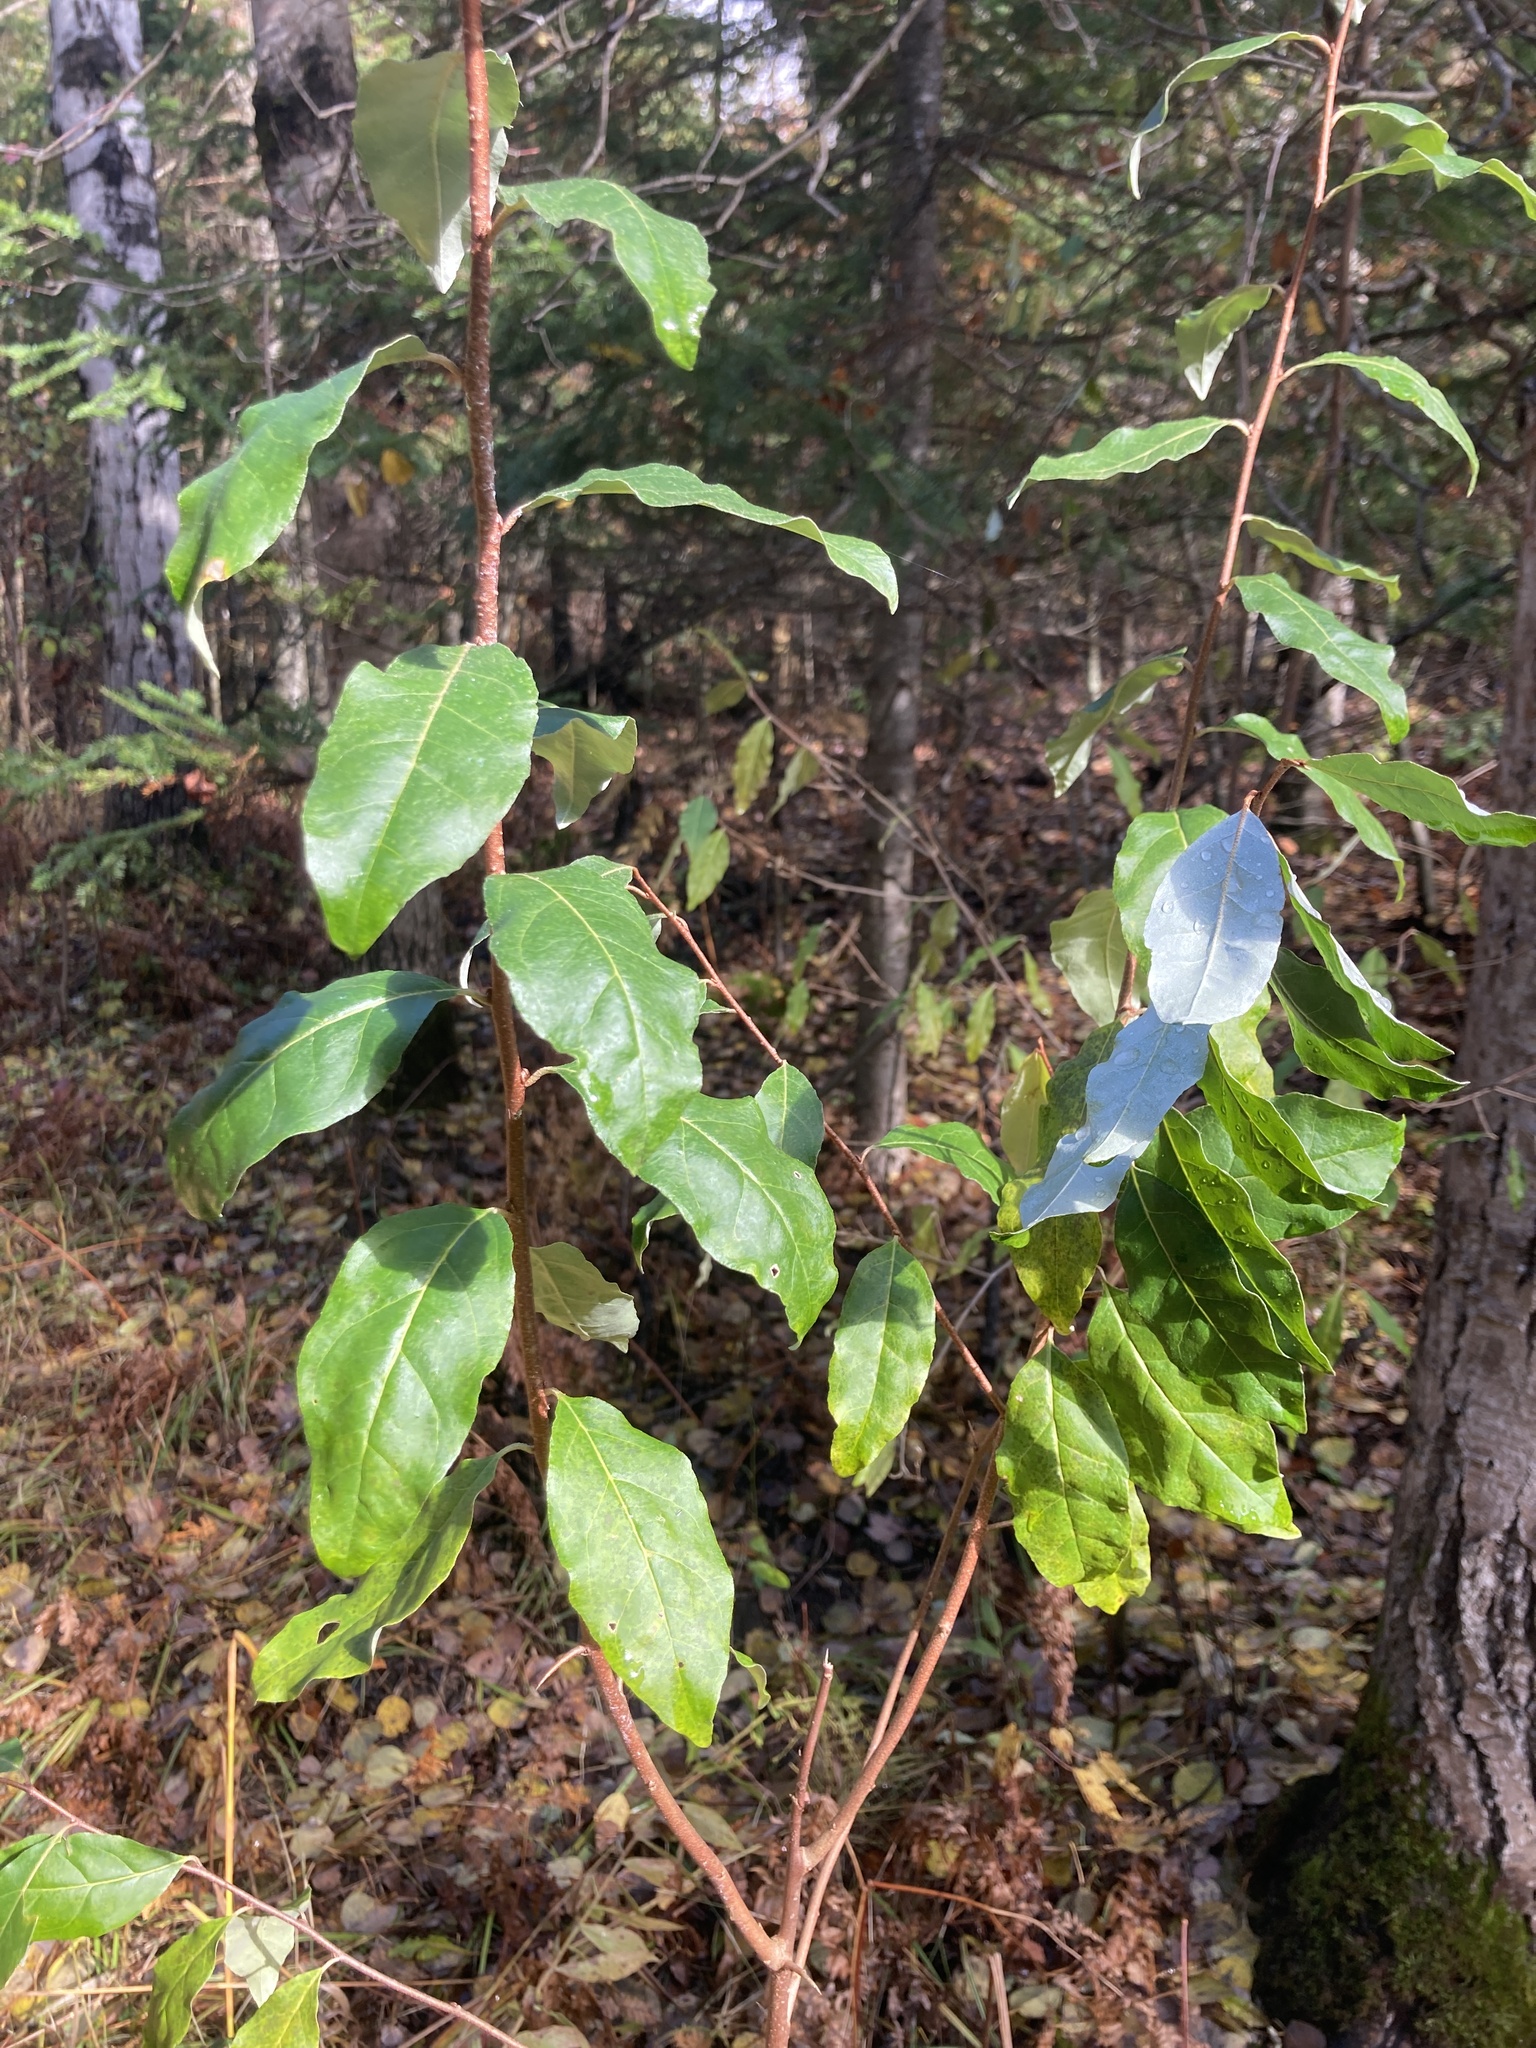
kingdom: Plantae
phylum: Tracheophyta
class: Magnoliopsida
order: Rosales
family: Elaeagnaceae
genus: Elaeagnus
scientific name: Elaeagnus umbellata
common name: Autumn olive
